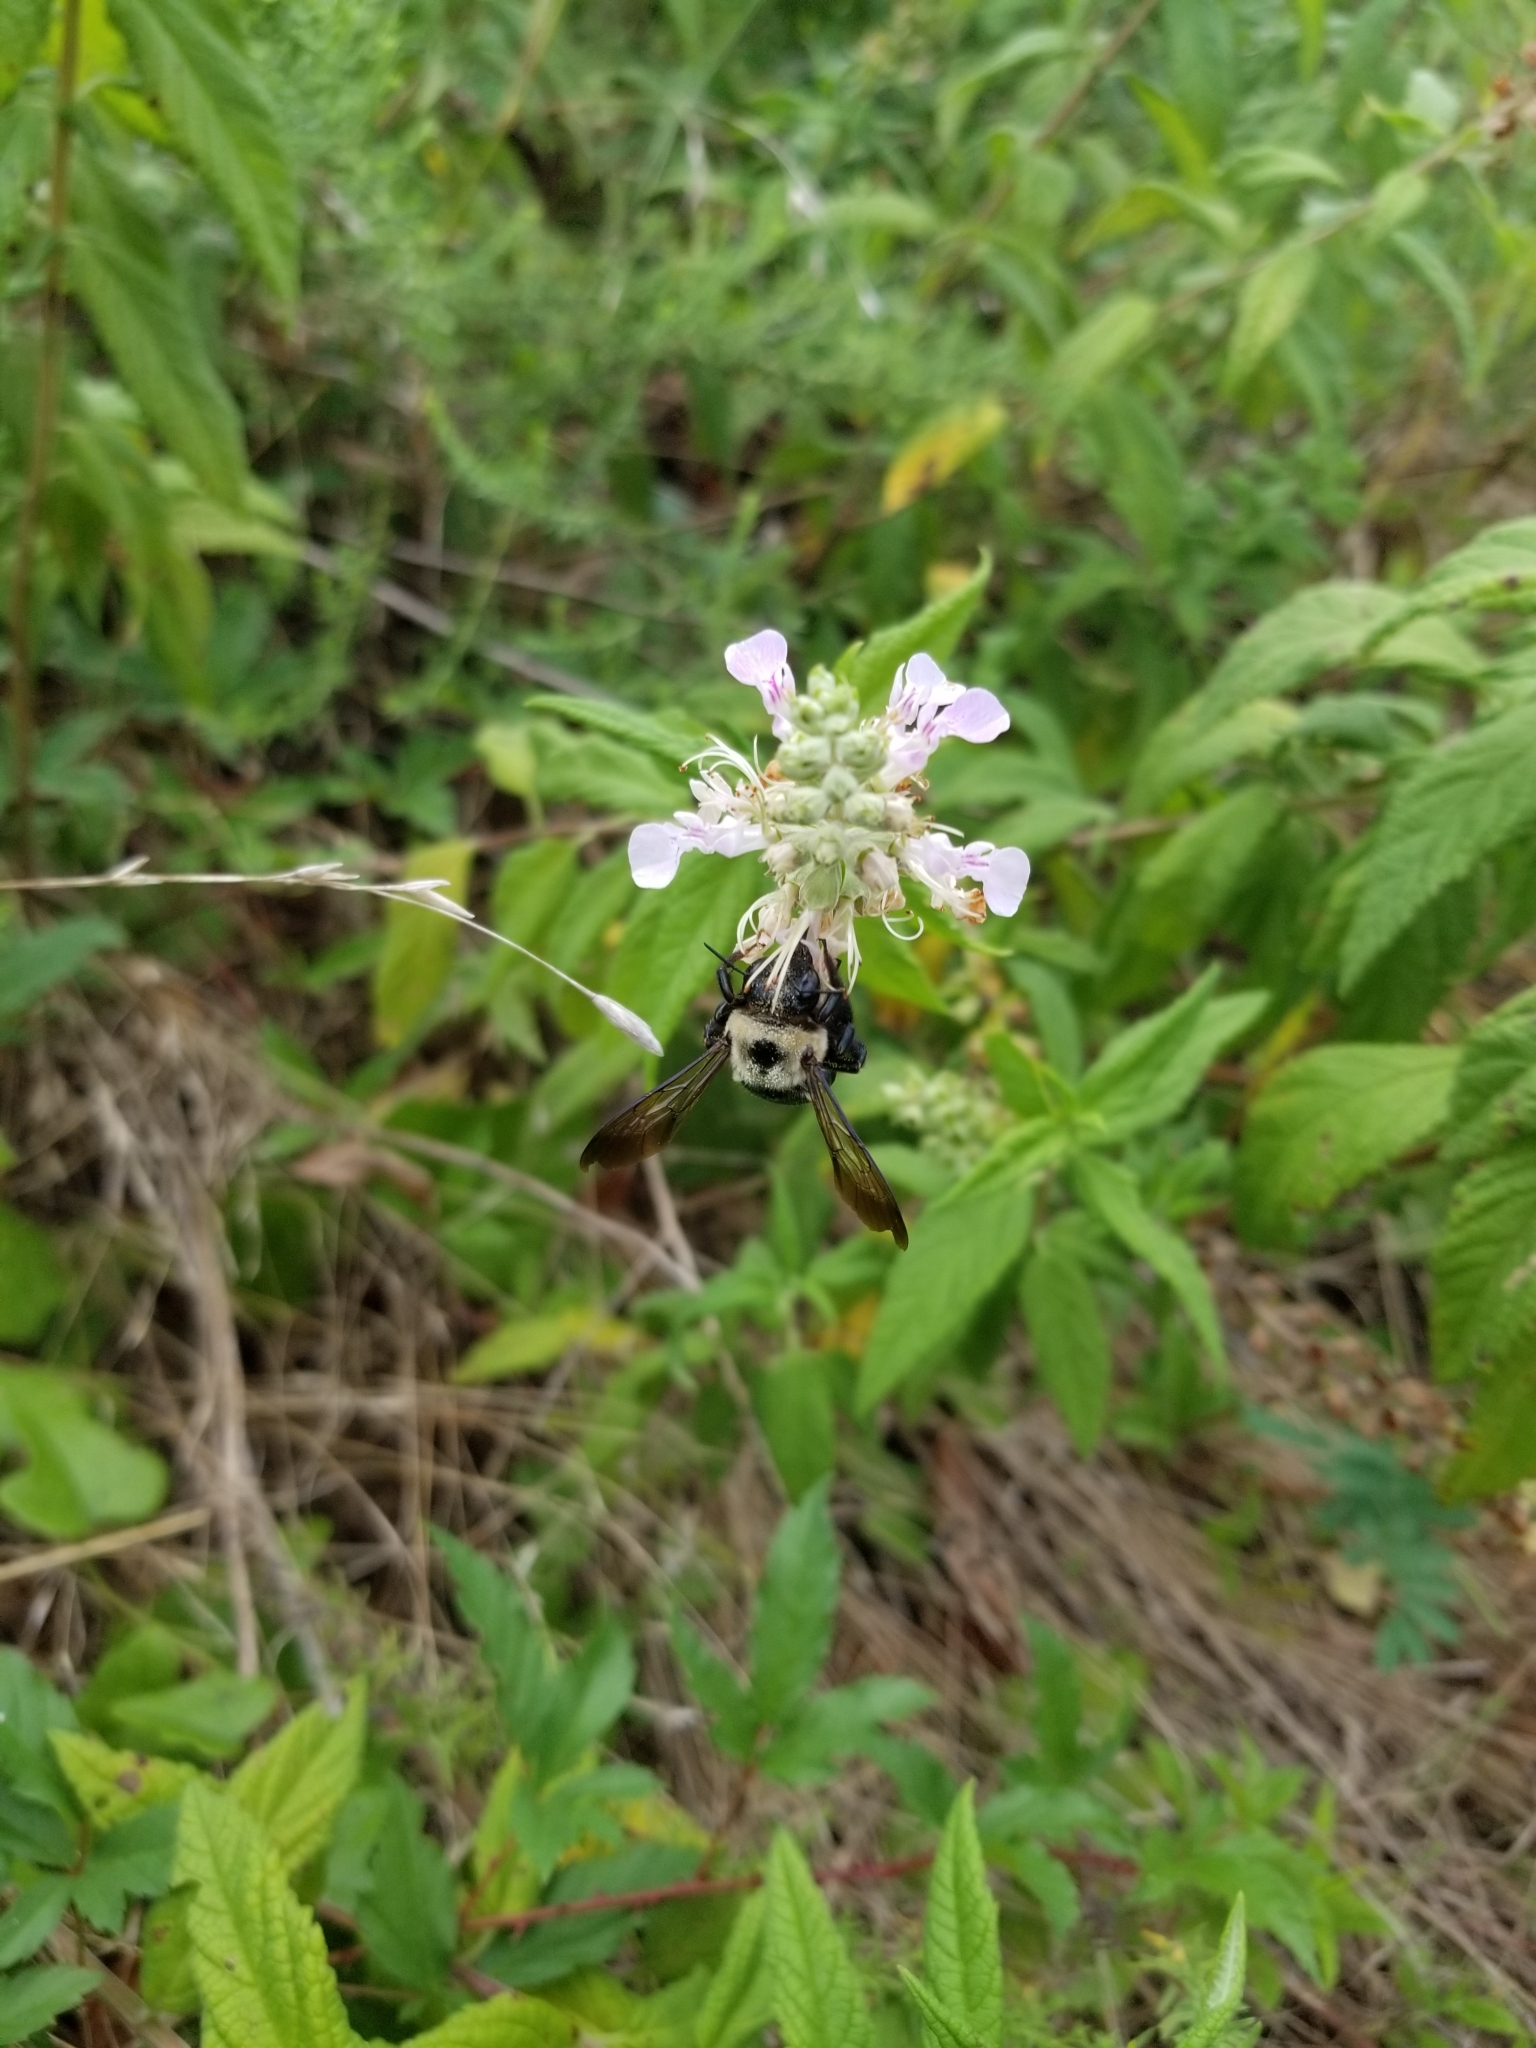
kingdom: Animalia
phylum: Arthropoda
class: Insecta
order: Hymenoptera
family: Apidae
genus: Xylocopa
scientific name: Xylocopa virginica
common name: Carpenter bee
